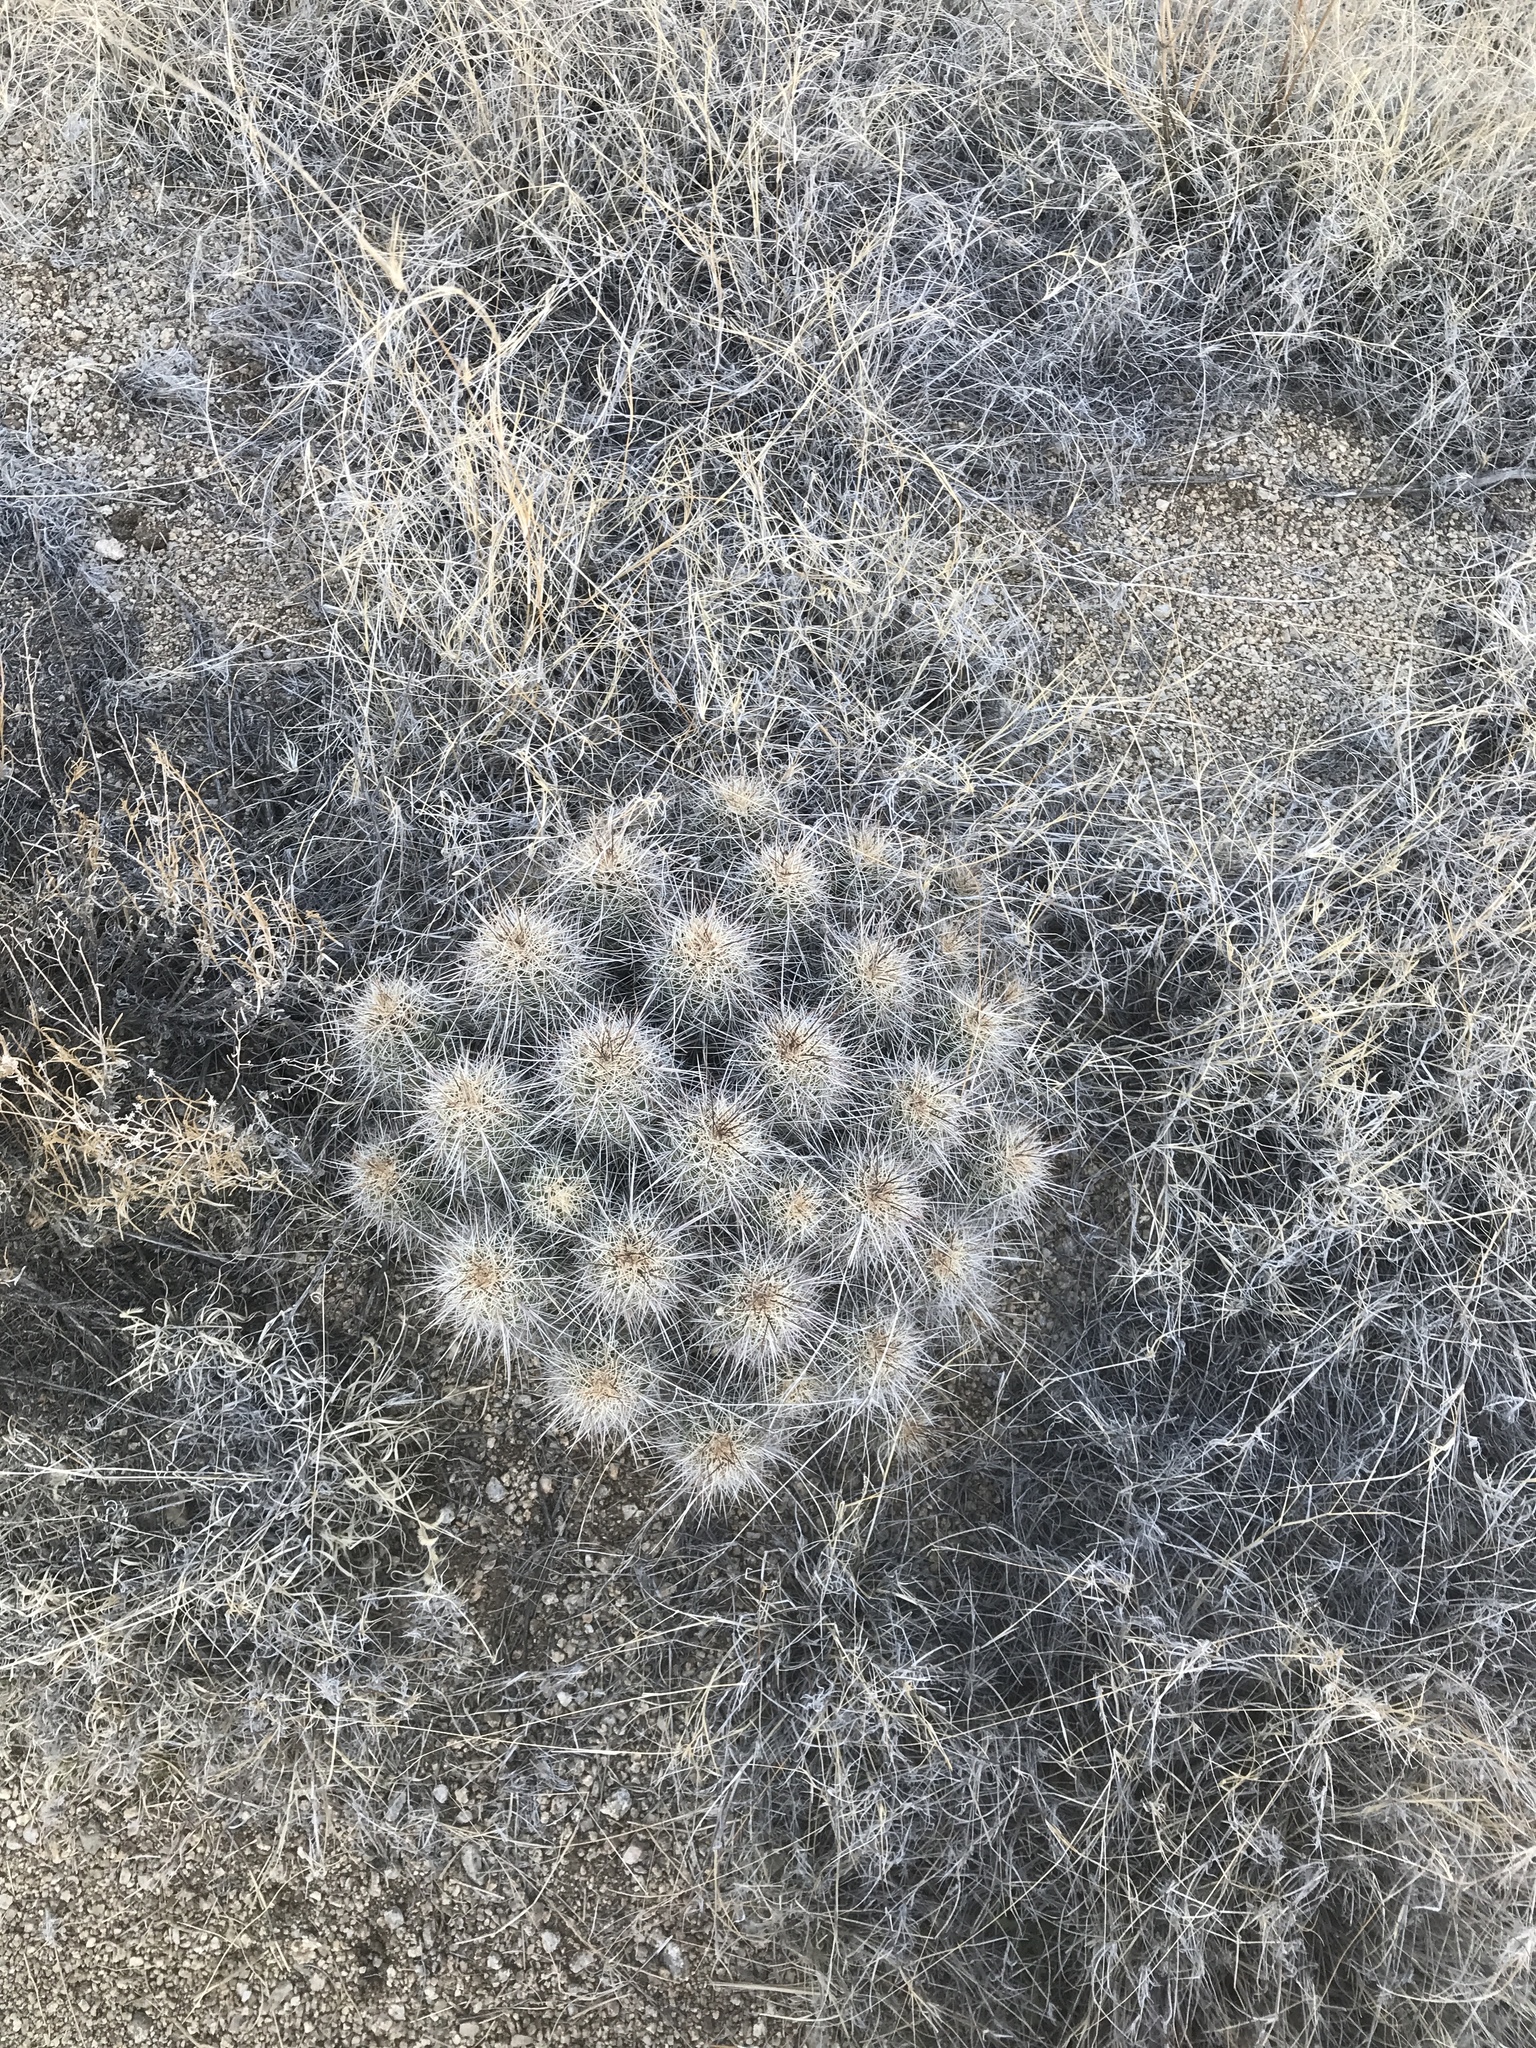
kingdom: Plantae
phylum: Tracheophyta
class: Magnoliopsida
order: Caryophyllales
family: Cactaceae
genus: Echinocereus
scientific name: Echinocereus coccineus
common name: Scarlet hedgehog cactus
